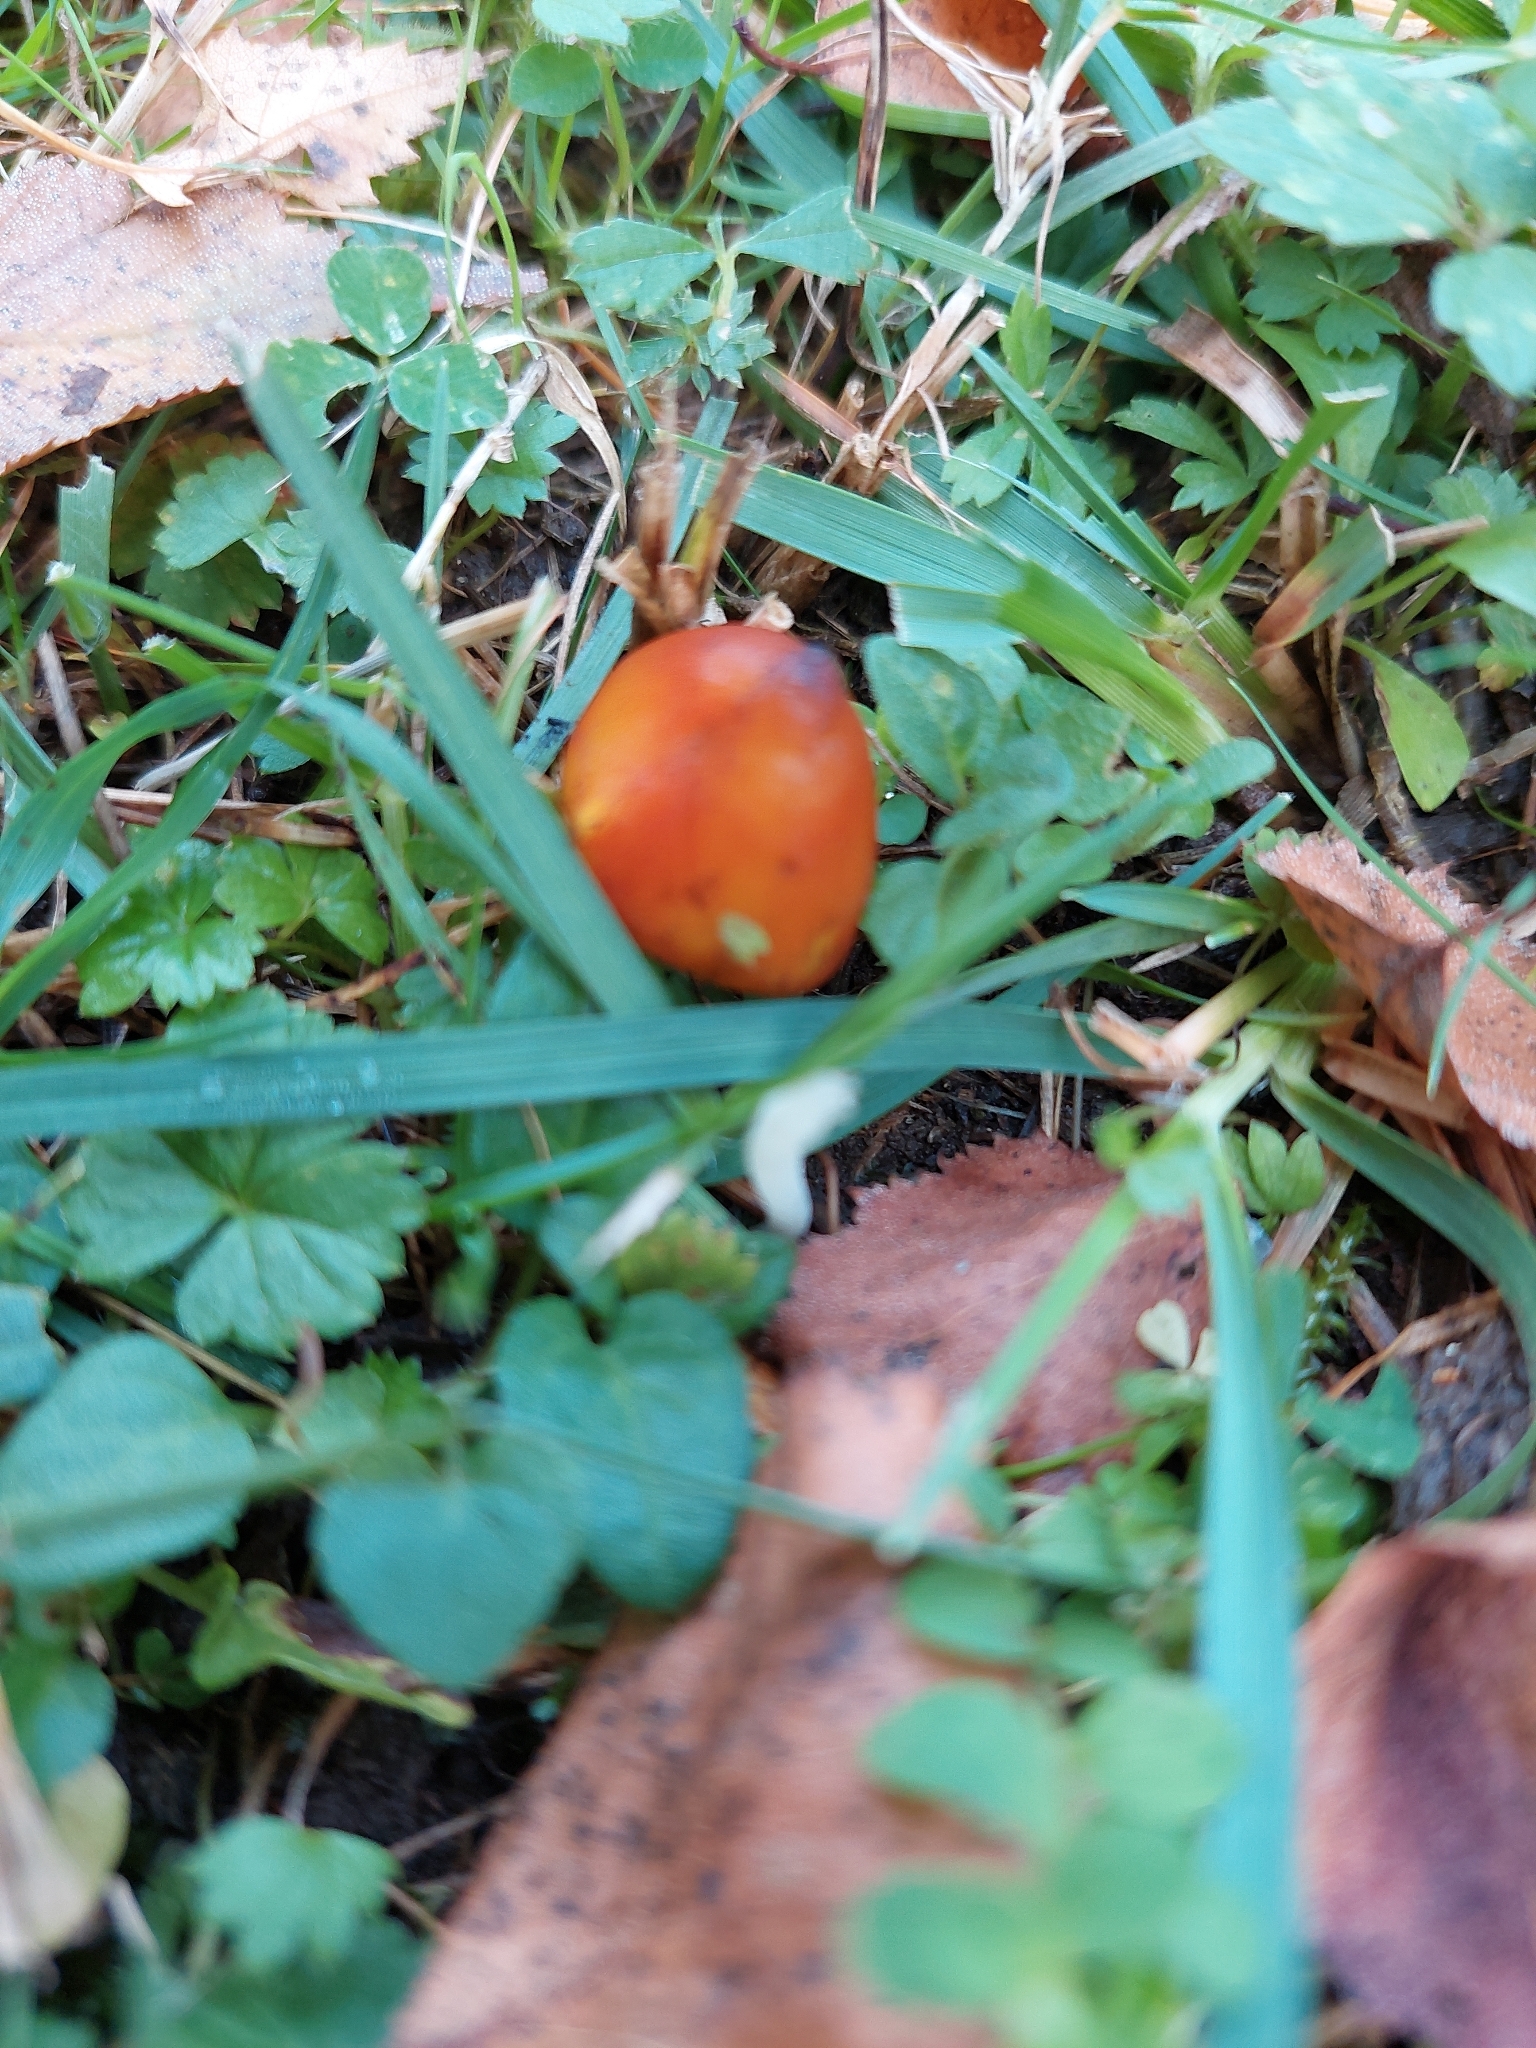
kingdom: Fungi
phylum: Basidiomycota
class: Agaricomycetes
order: Agaricales
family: Hygrophoraceae
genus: Hygrocybe
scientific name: Hygrocybe conica
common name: Blackening wax-cap
